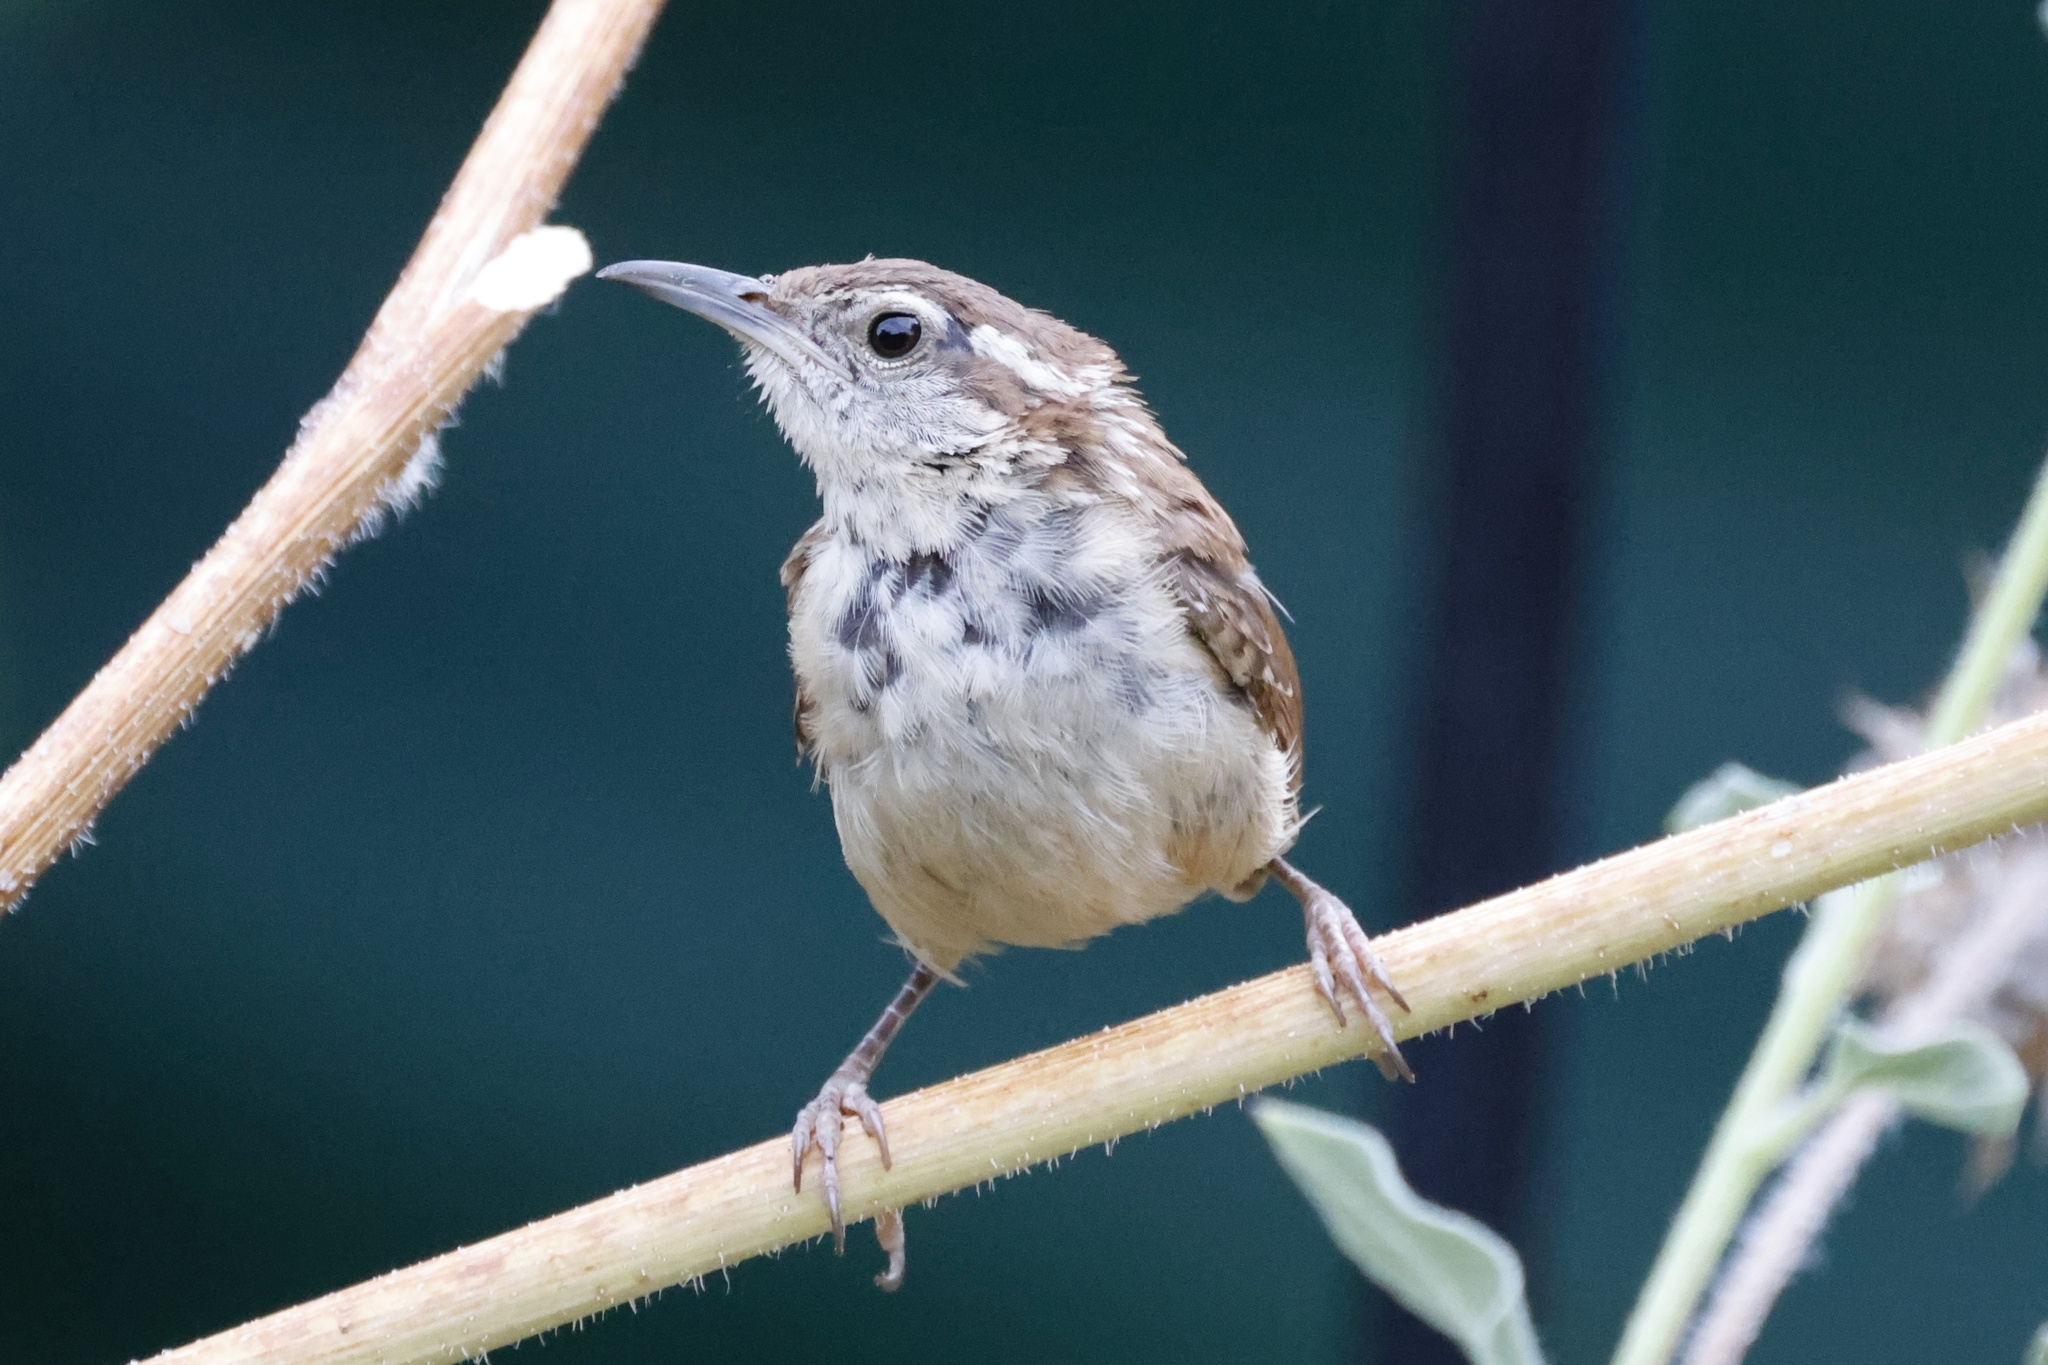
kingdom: Animalia
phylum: Chordata
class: Aves
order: Passeriformes
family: Troglodytidae
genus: Thryothorus
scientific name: Thryothorus ludovicianus
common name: Carolina wren
